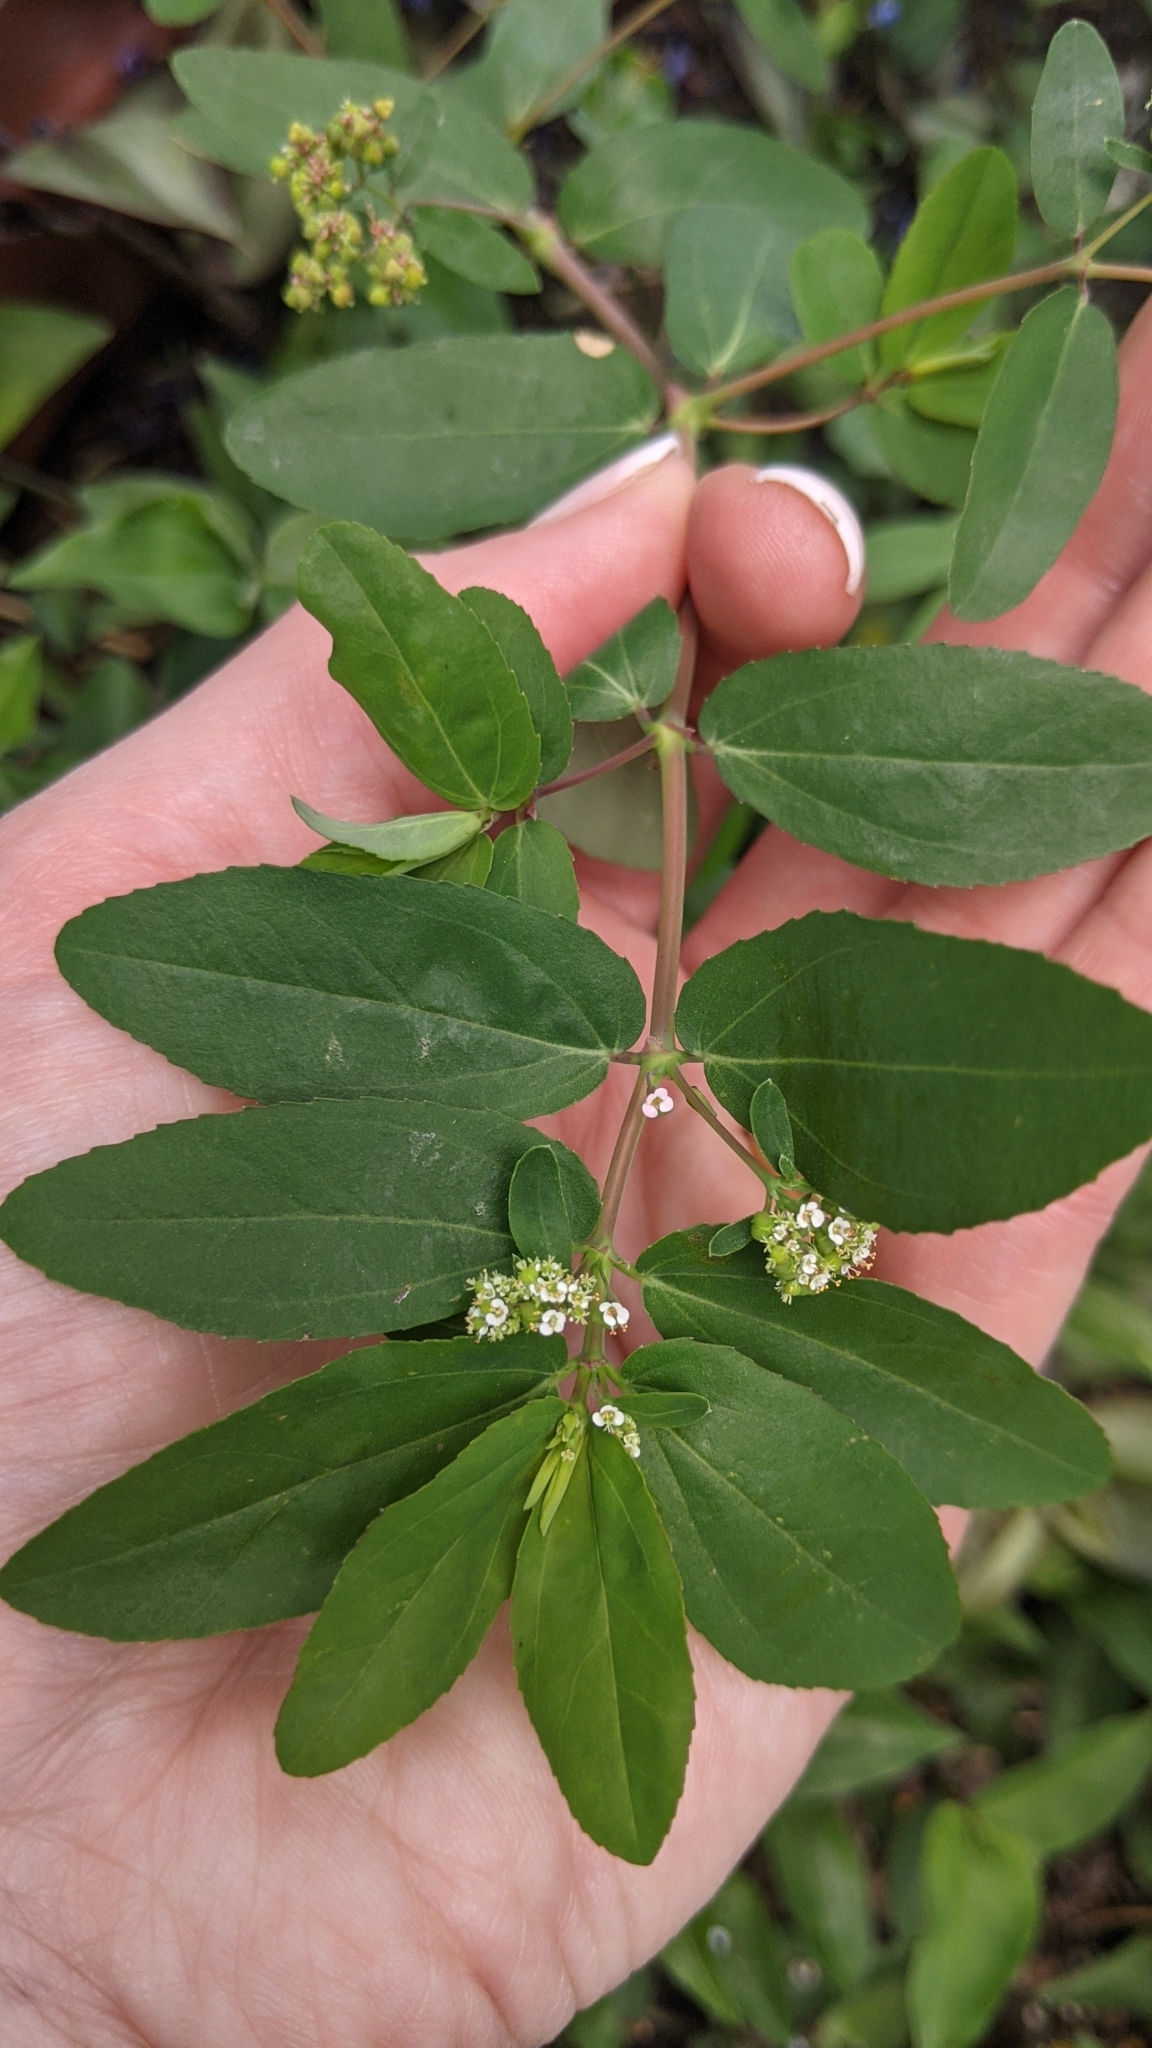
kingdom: Plantae
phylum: Tracheophyta
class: Magnoliopsida
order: Malpighiales
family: Euphorbiaceae
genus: Euphorbia
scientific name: Euphorbia hypericifolia
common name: Graceful sandmat
